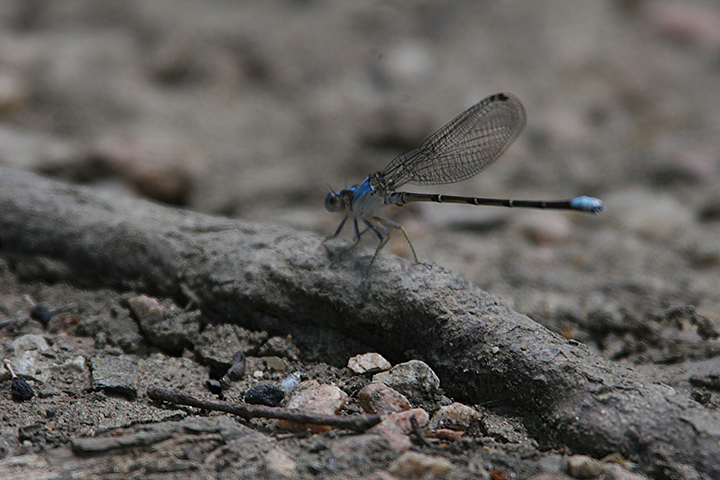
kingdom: Animalia
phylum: Arthropoda
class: Insecta
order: Odonata
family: Coenagrionidae
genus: Argia
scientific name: Argia apicalis
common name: Blue-fronted dancer
